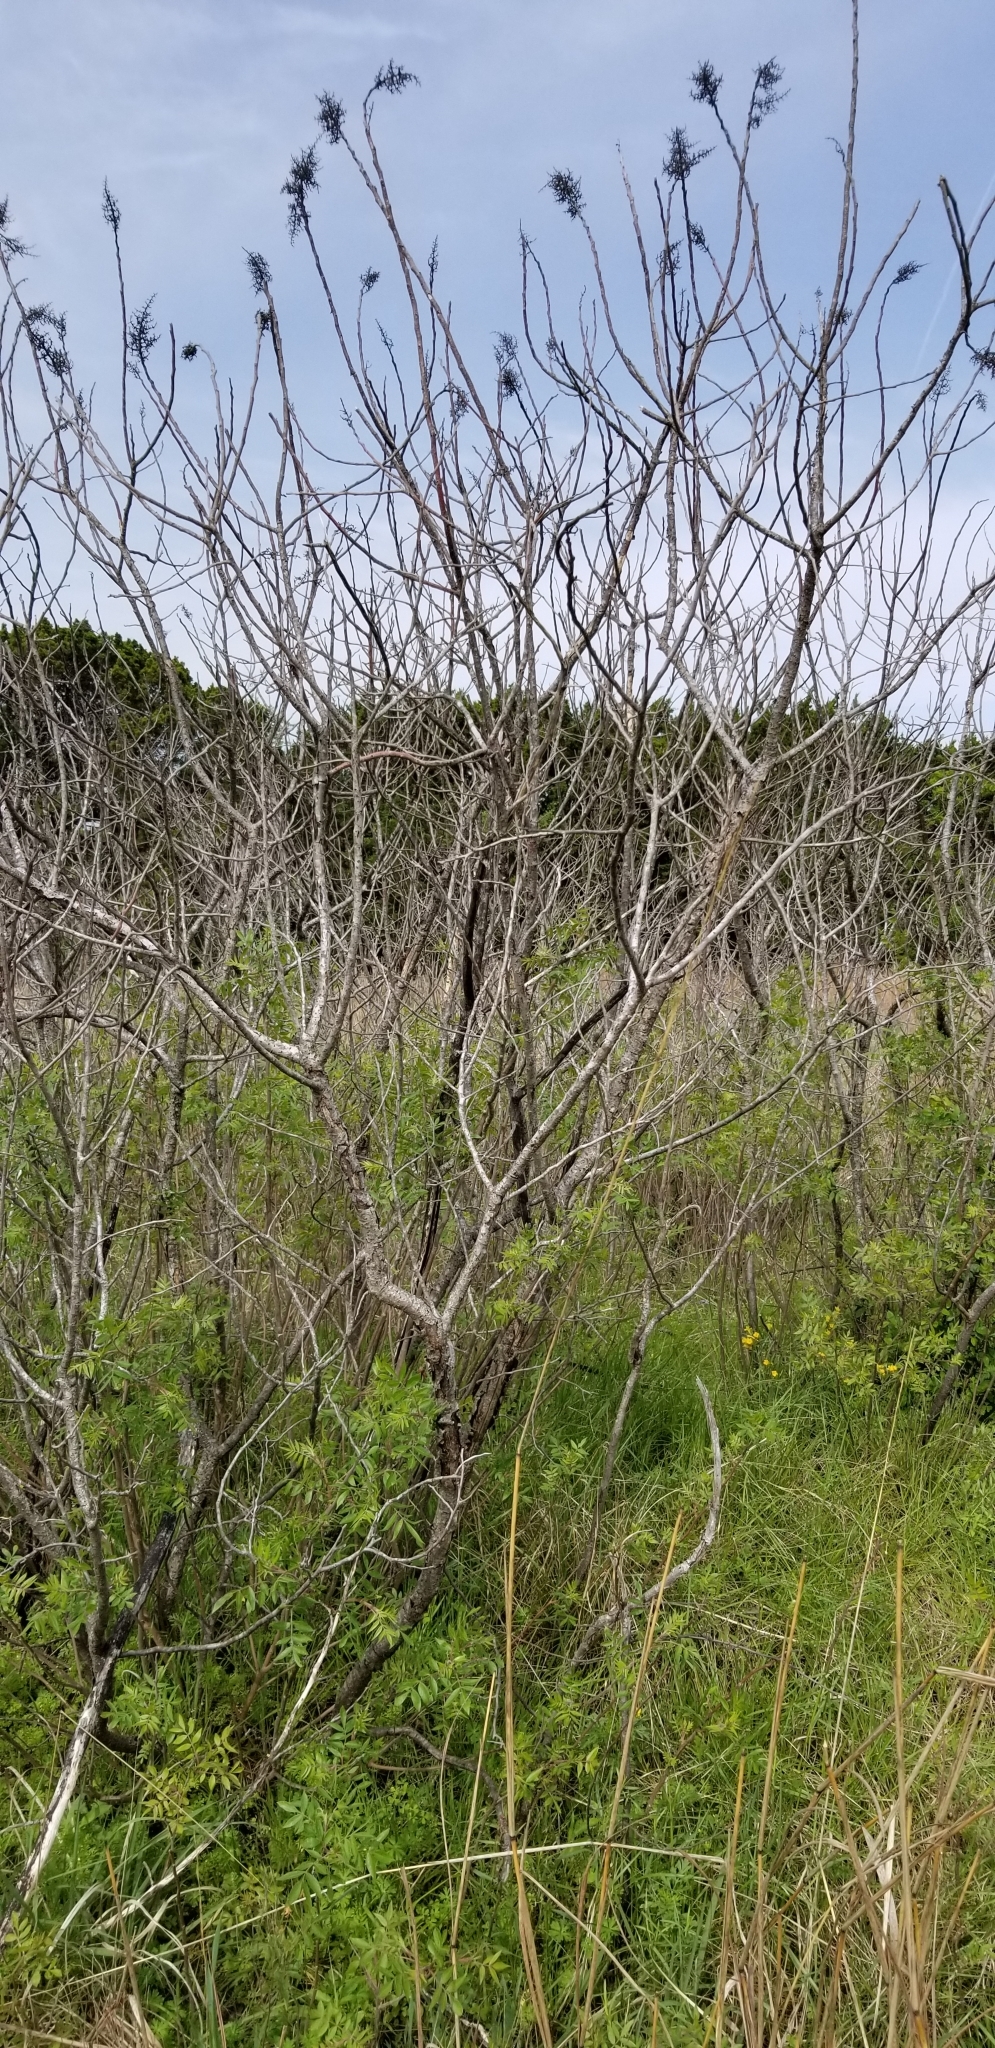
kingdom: Plantae
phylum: Tracheophyta
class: Magnoliopsida
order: Sapindales
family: Anacardiaceae
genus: Rhus
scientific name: Rhus lanceolata
